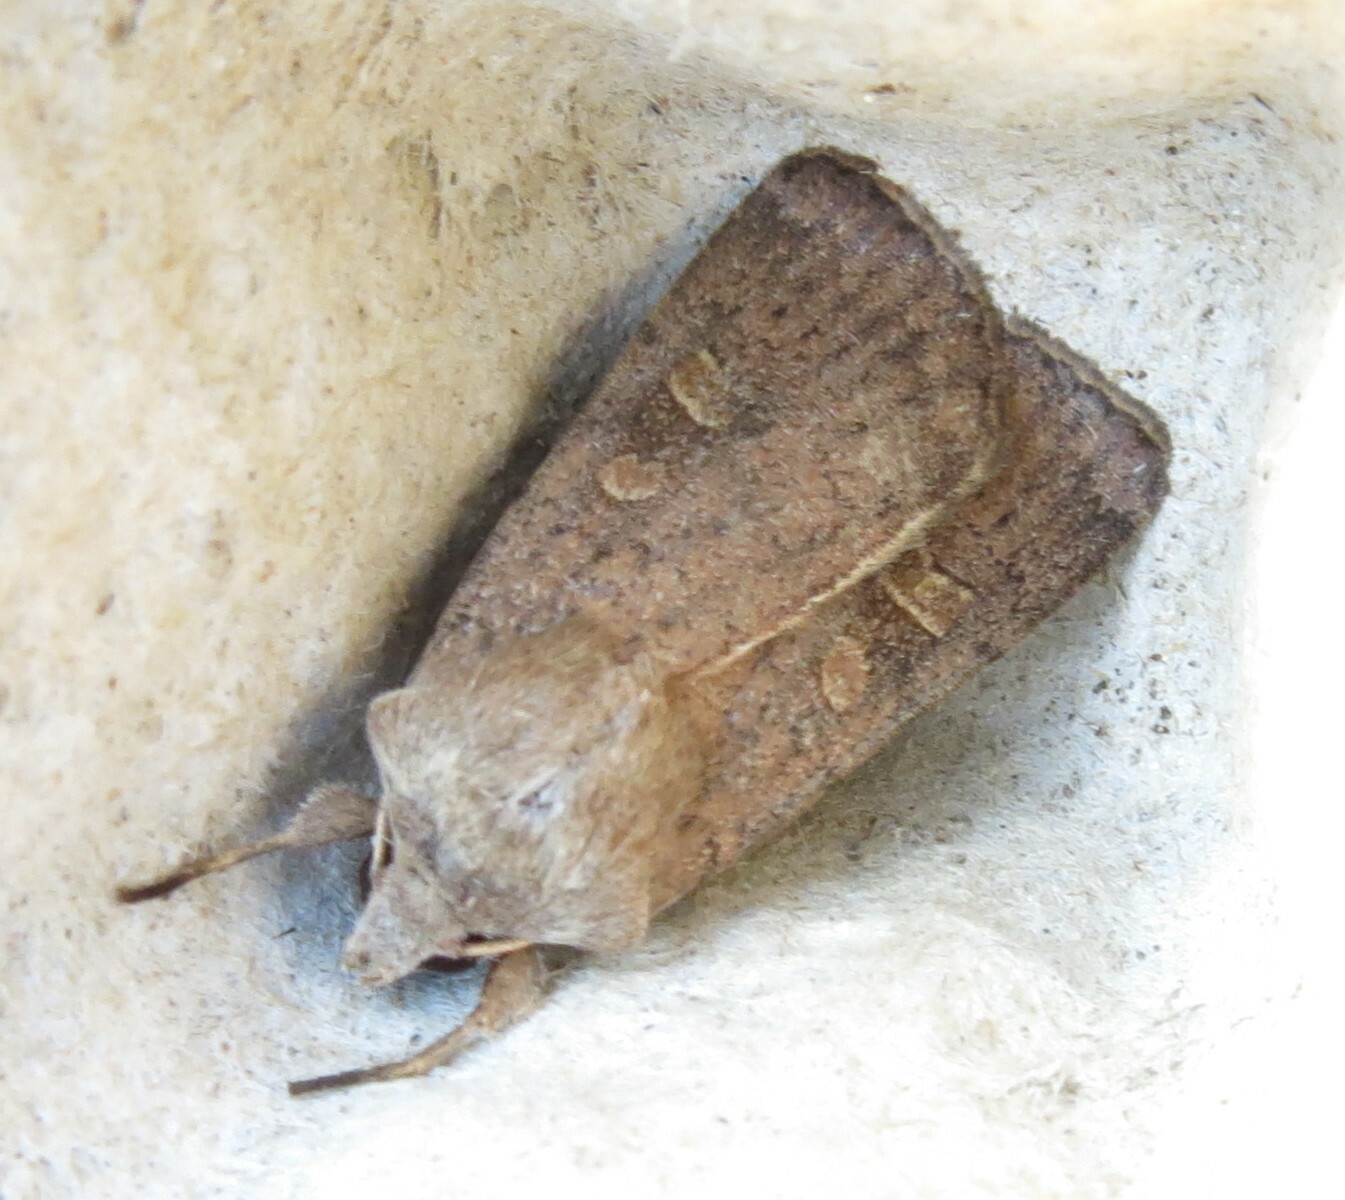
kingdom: Animalia
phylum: Arthropoda
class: Insecta
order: Lepidoptera
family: Noctuidae
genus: Xestia
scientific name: Xestia xanthographa
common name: Square-spot rustic
